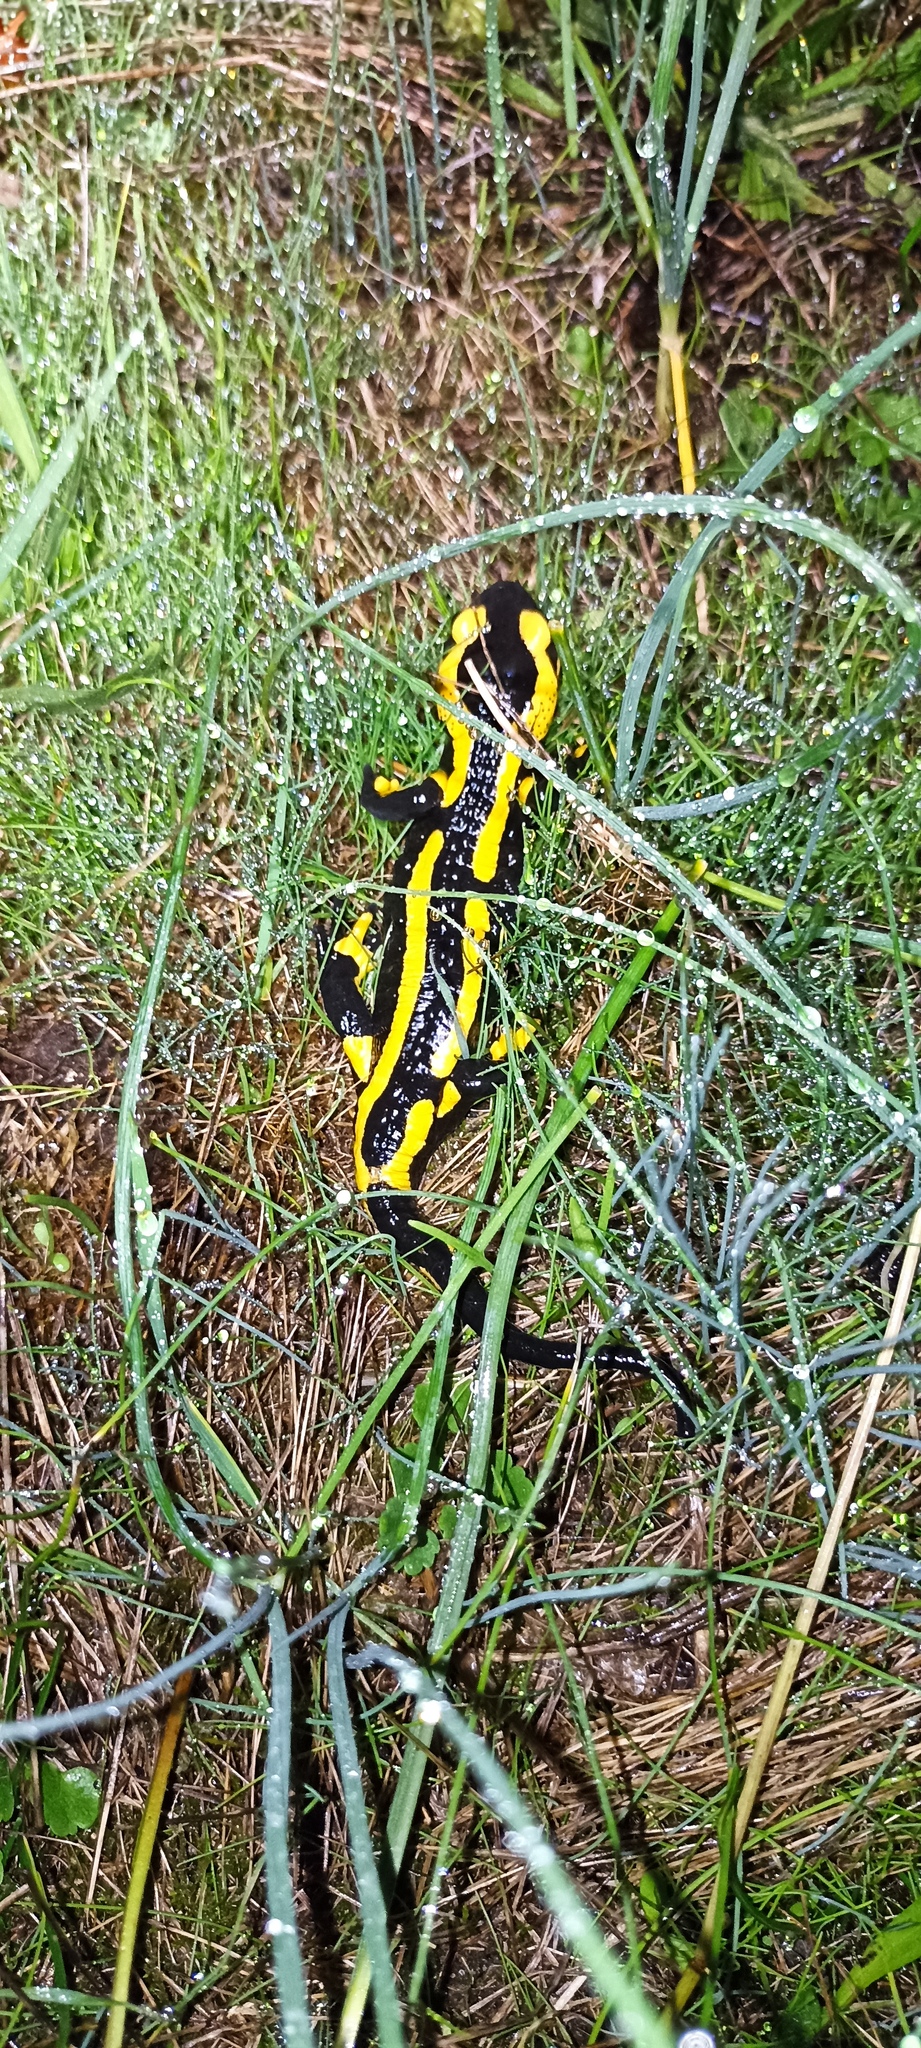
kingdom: Animalia
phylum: Chordata
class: Amphibia
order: Caudata
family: Salamandridae
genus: Salamandra
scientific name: Salamandra salamandra
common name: Fire salamander
